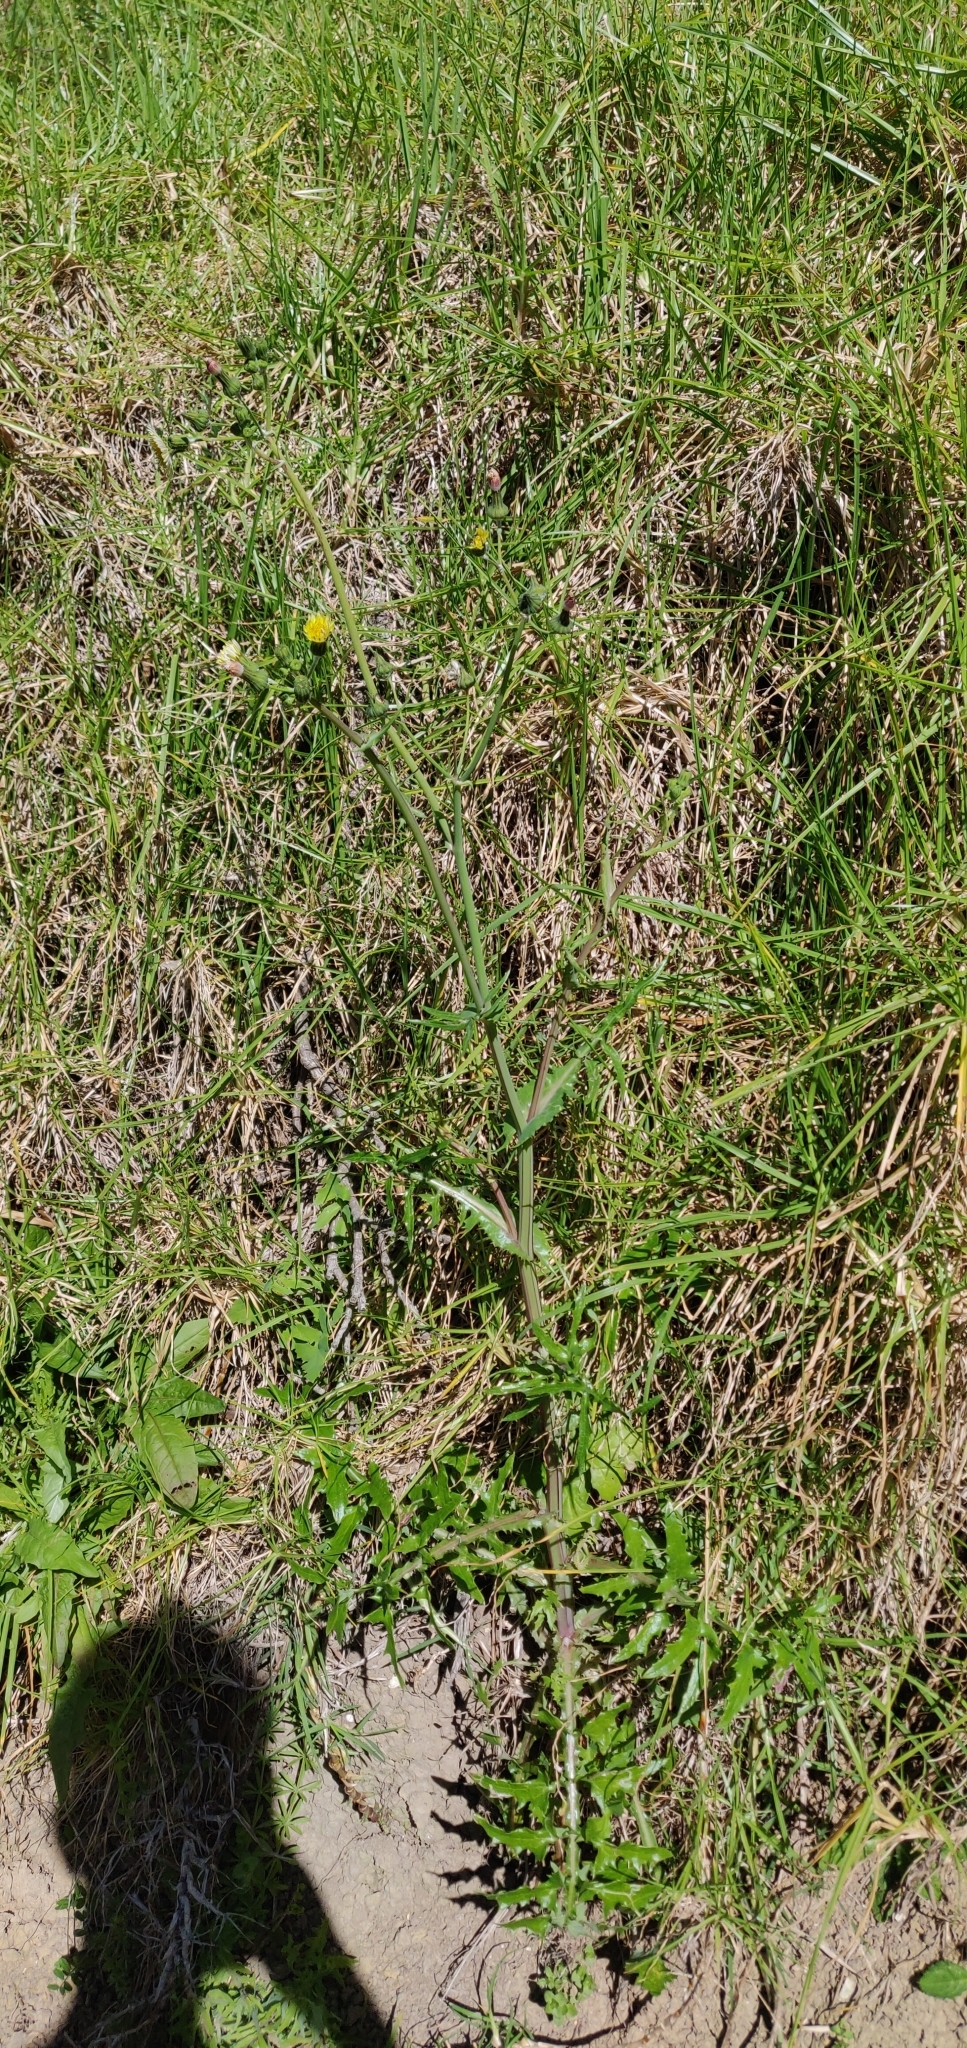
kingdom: Plantae
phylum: Tracheophyta
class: Magnoliopsida
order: Asterales
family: Asteraceae
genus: Sonchus
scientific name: Sonchus oleraceus
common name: Common sowthistle
